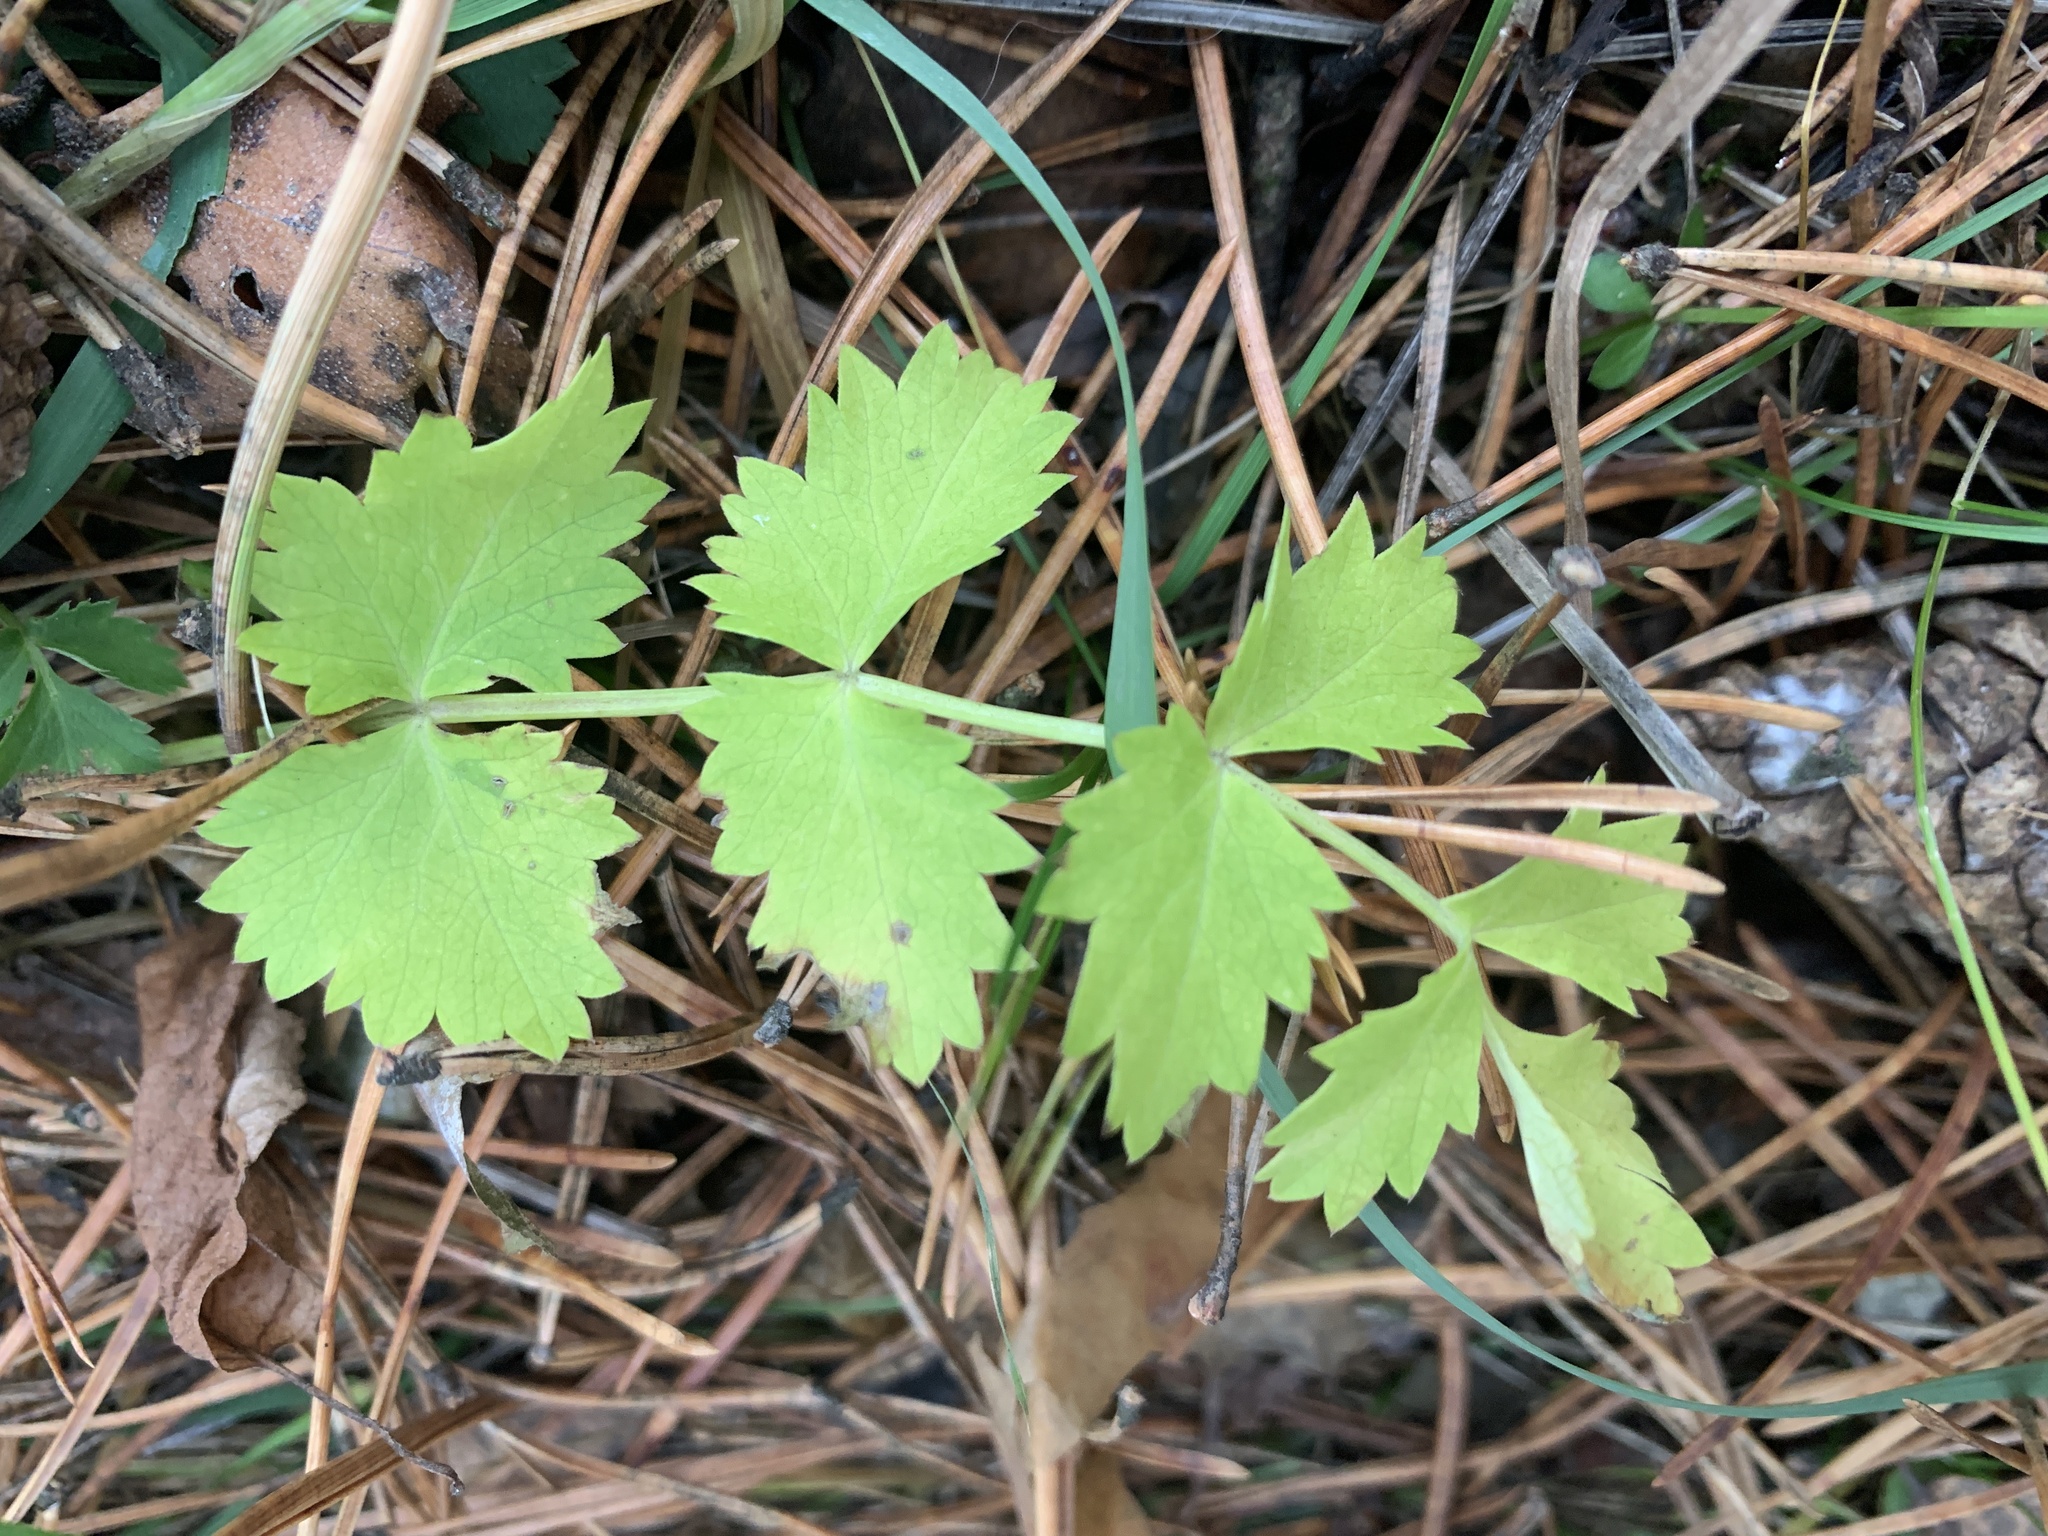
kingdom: Plantae
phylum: Tracheophyta
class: Magnoliopsida
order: Apiales
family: Apiaceae
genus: Pimpinella
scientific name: Pimpinella saxifraga
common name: Burnet-saxifrage
